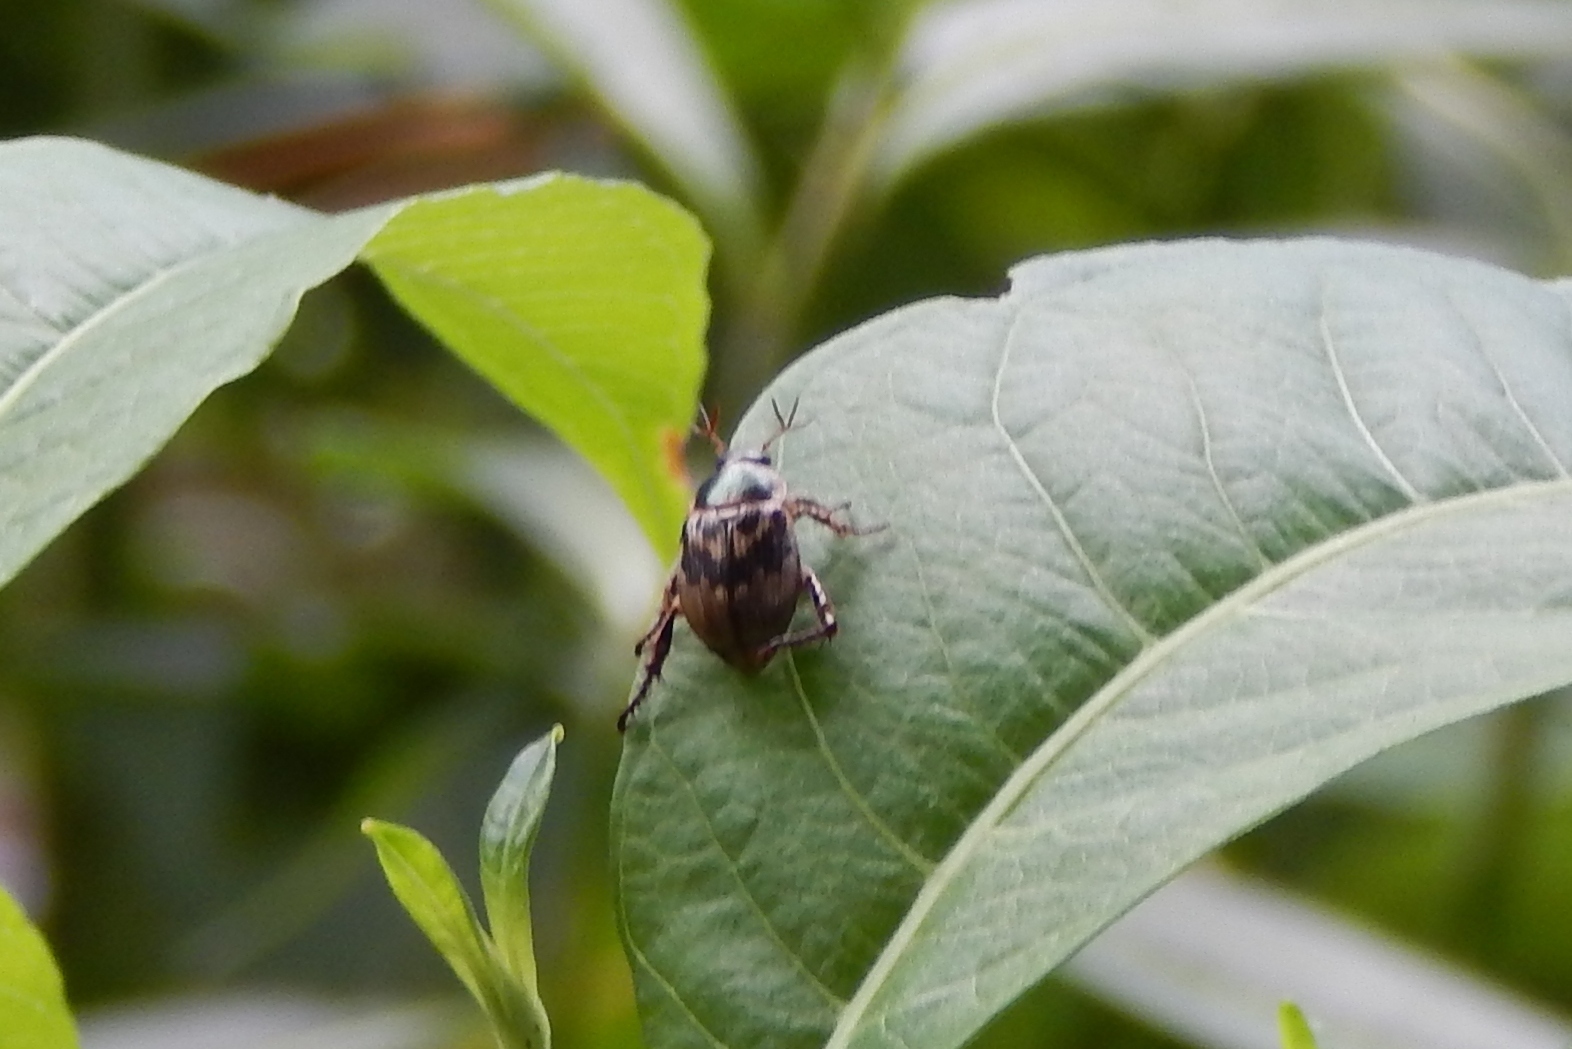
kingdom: Animalia
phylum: Arthropoda
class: Insecta
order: Coleoptera
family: Scarabaeidae
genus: Exomala
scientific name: Exomala orientalis
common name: Oriental beetle
